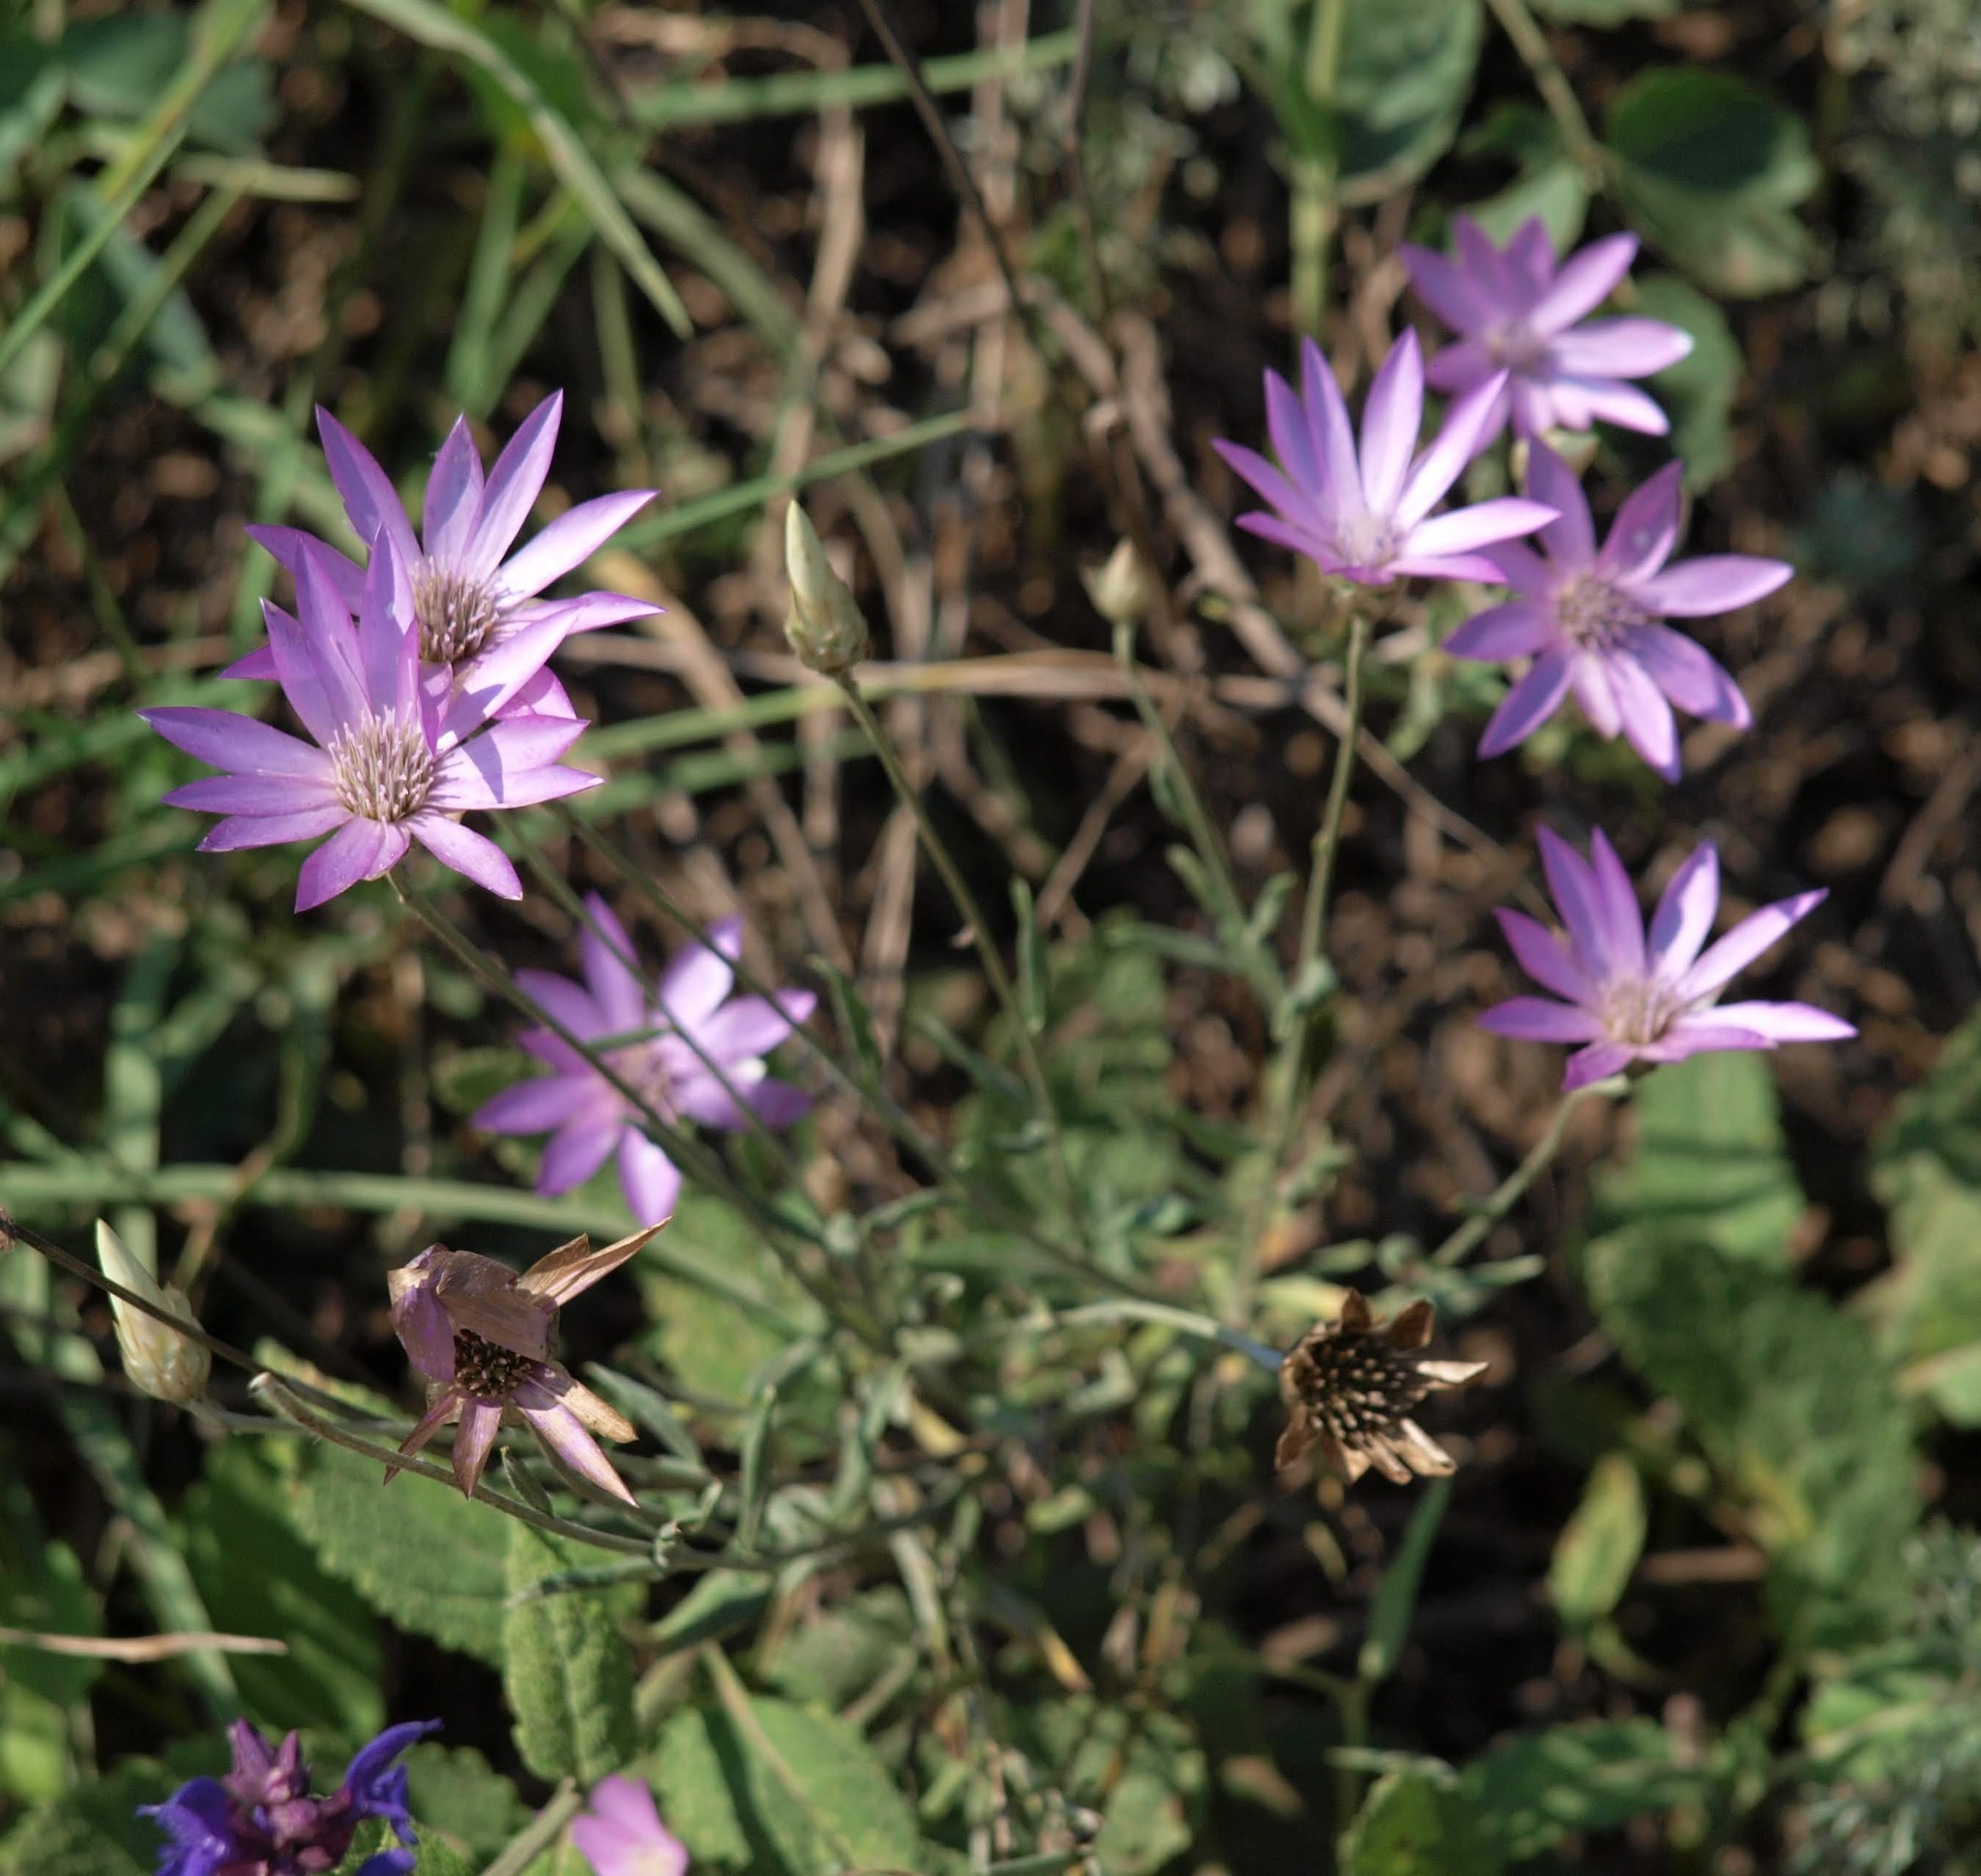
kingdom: Plantae
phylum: Tracheophyta
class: Magnoliopsida
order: Asterales
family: Asteraceae
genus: Xeranthemum
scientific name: Xeranthemum annuum
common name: Immortelle
